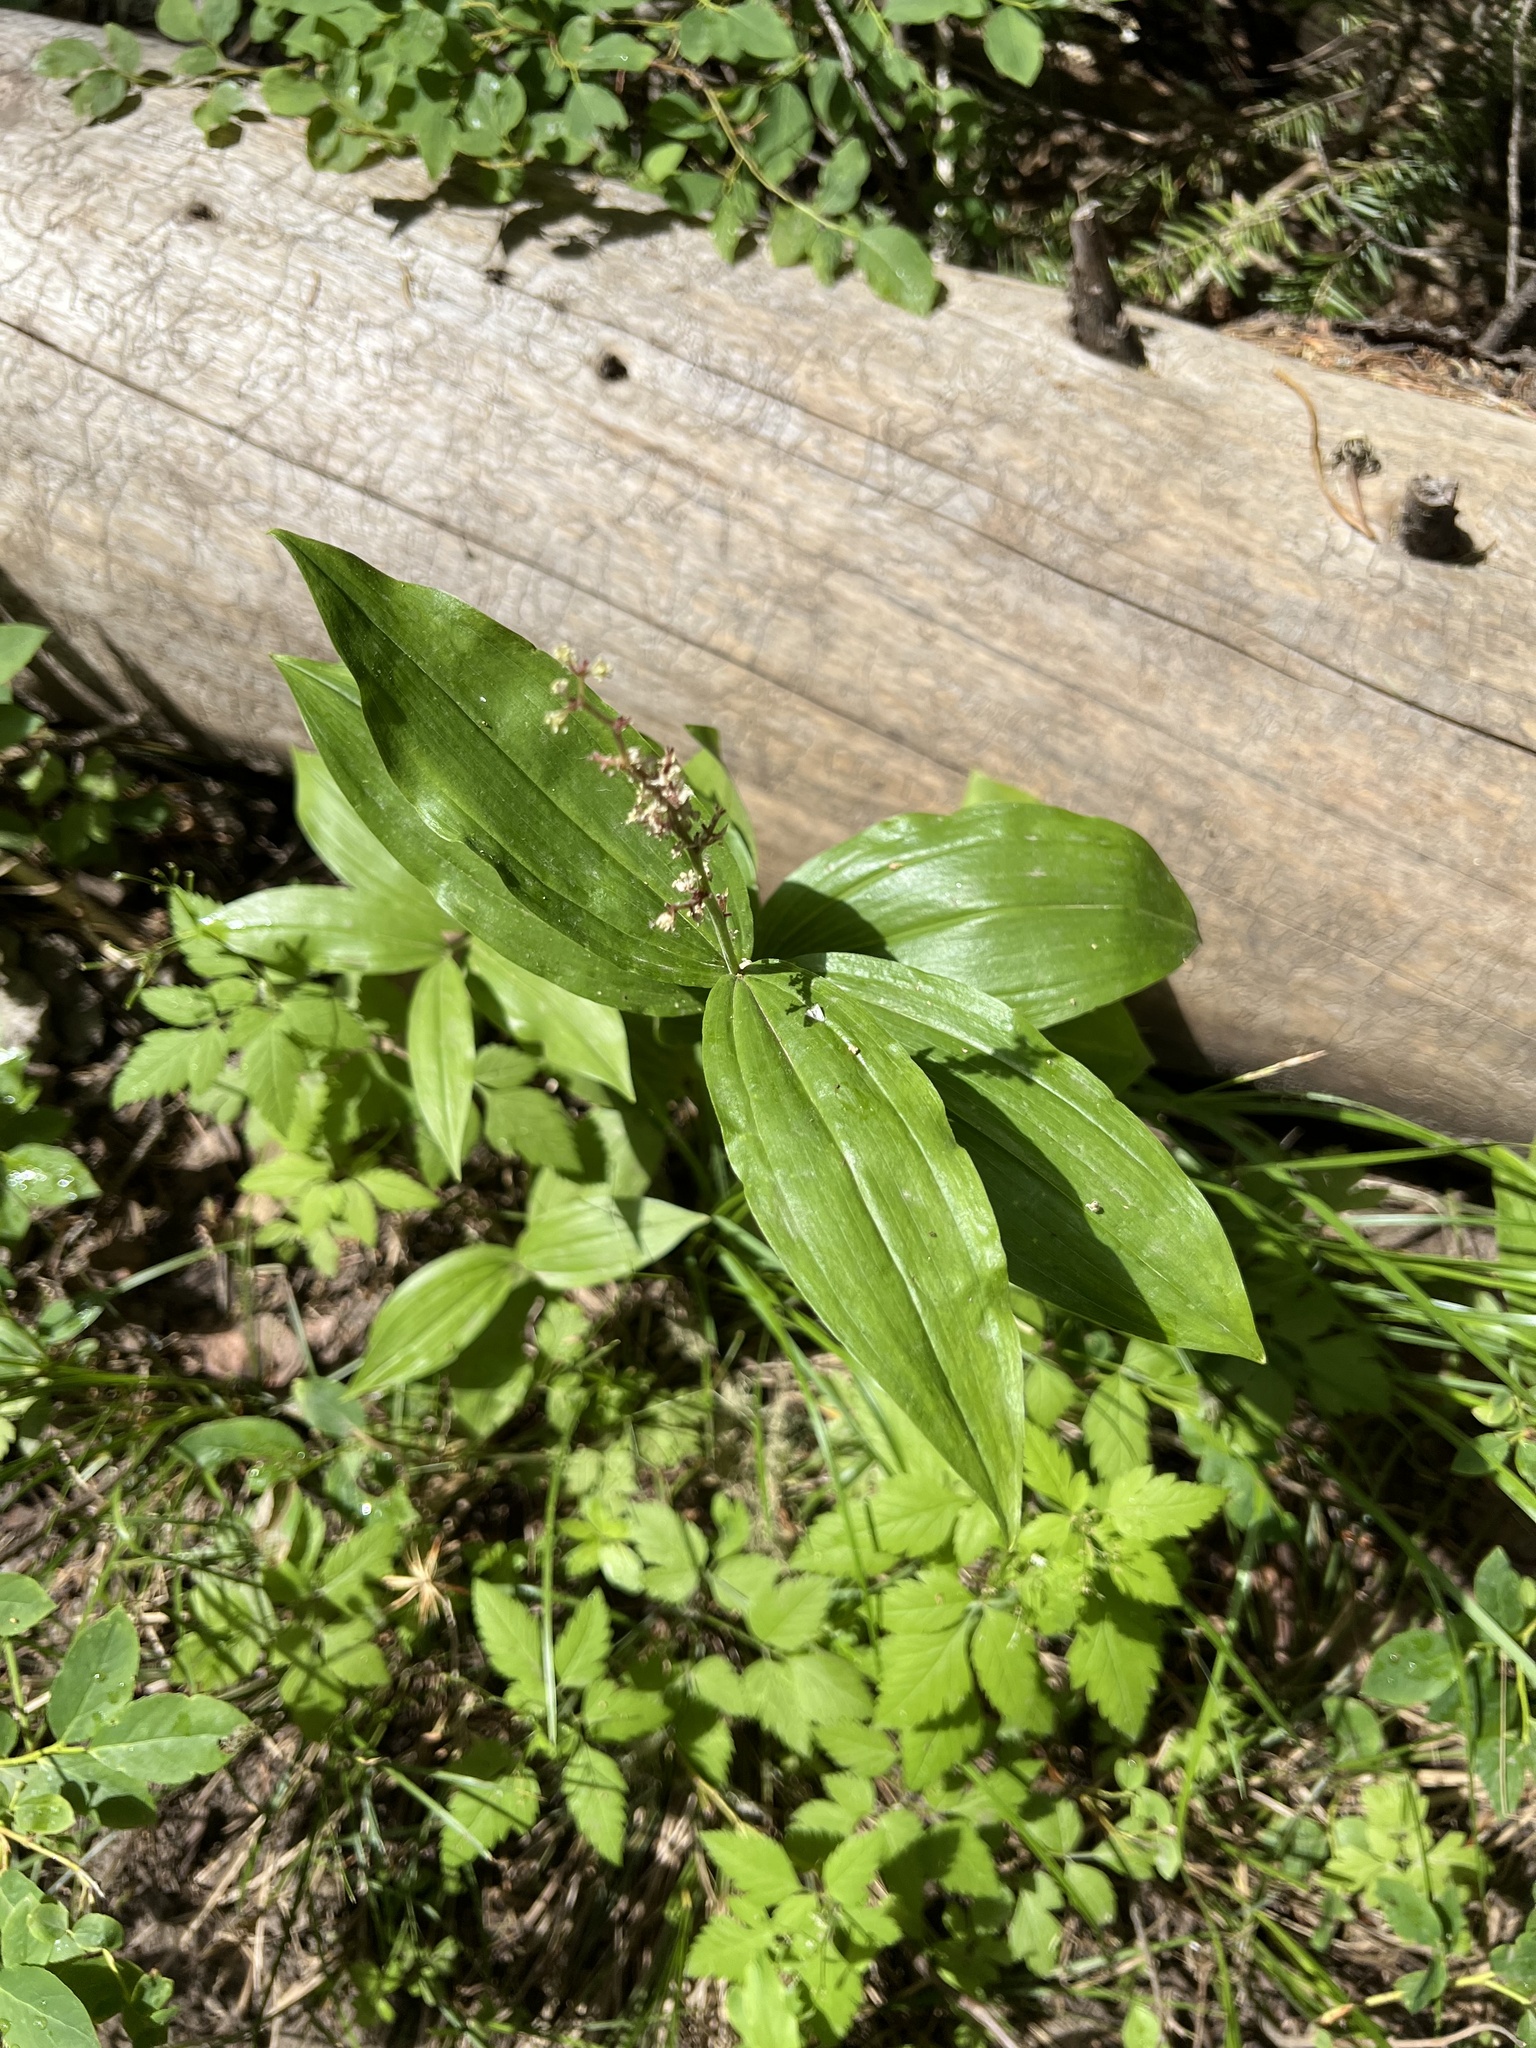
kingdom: Plantae
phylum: Tracheophyta
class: Liliopsida
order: Asparagales
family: Asparagaceae
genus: Maianthemum
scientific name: Maianthemum racemosum
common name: False spikenard
